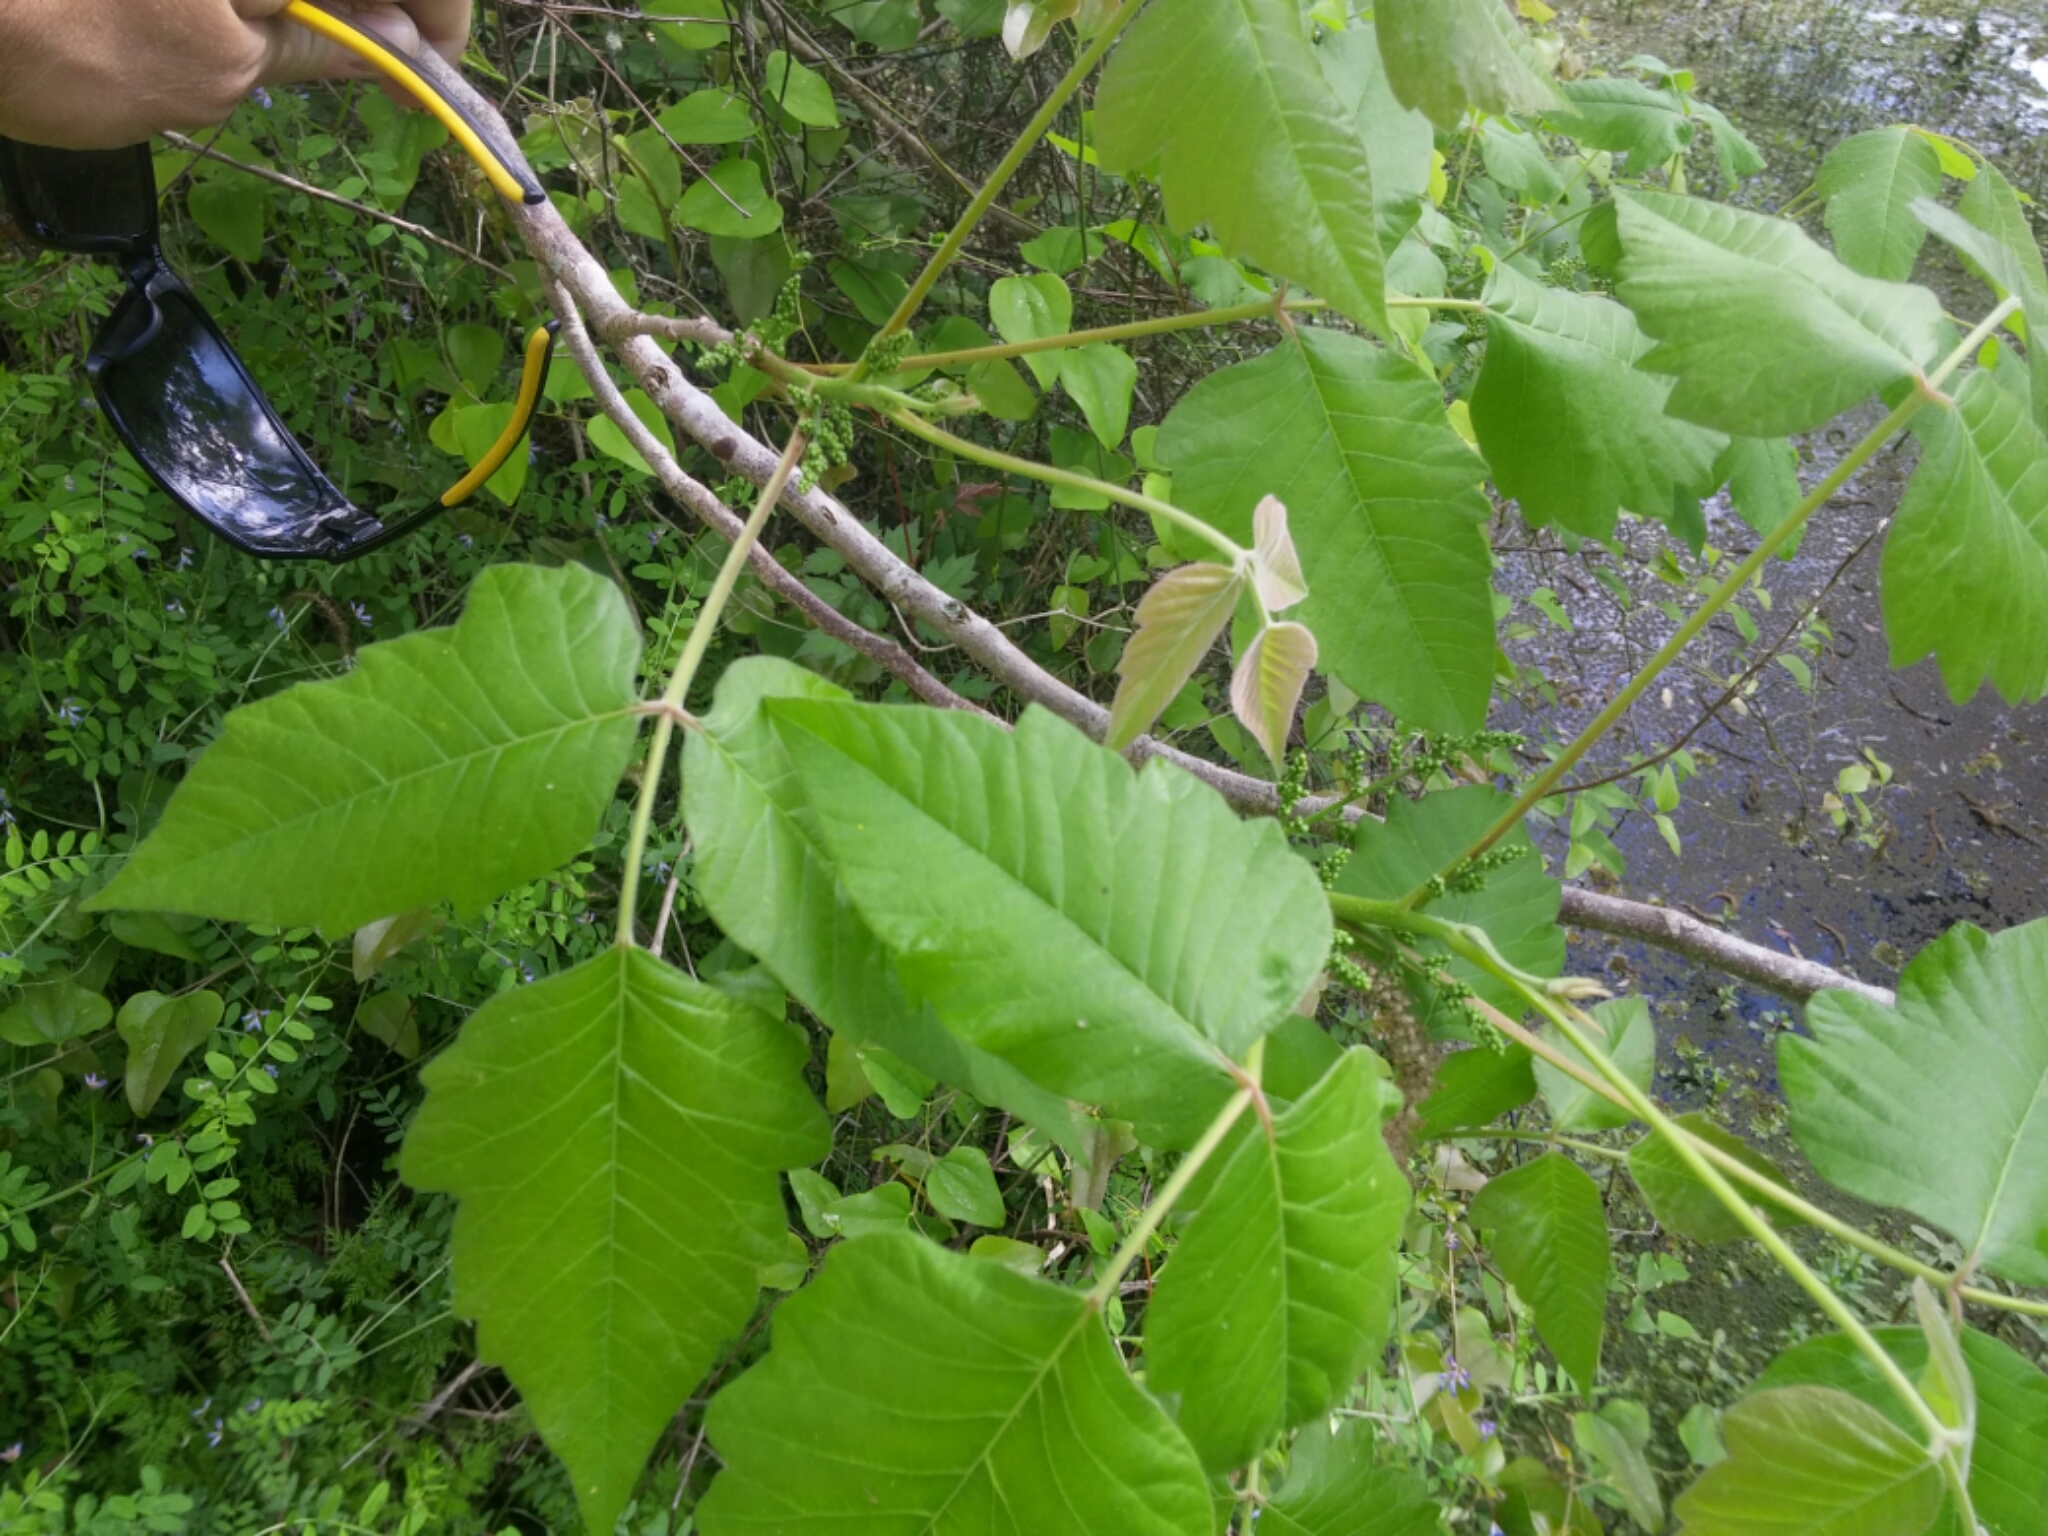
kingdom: Plantae
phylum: Tracheophyta
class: Magnoliopsida
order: Sapindales
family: Anacardiaceae
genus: Toxicodendron
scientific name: Toxicodendron radicans
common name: Poison ivy
